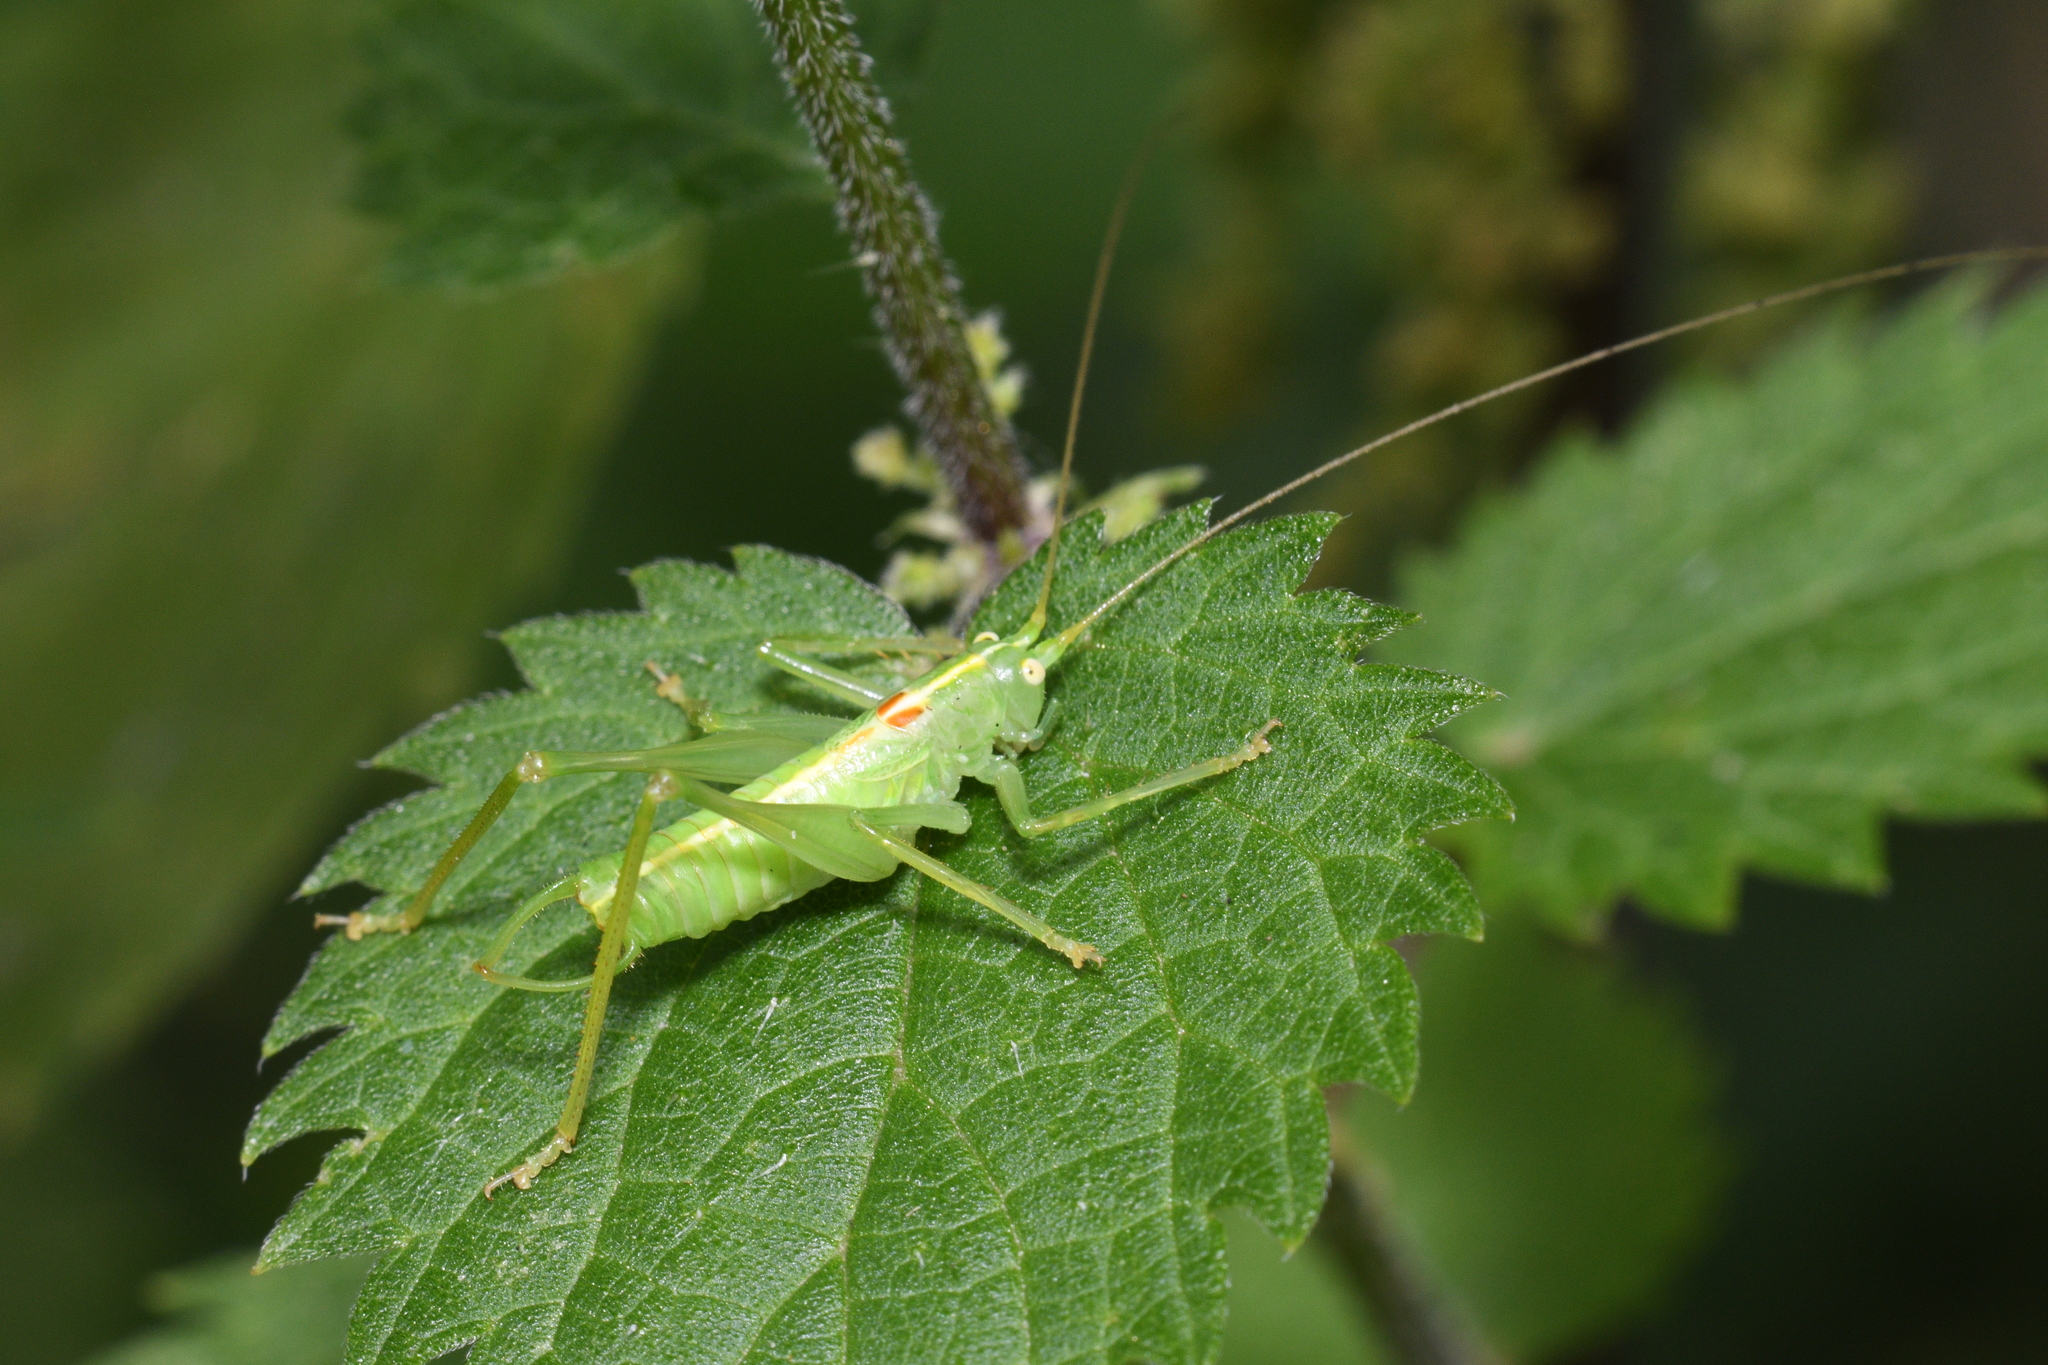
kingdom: Animalia
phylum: Arthropoda
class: Insecta
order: Orthoptera
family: Tettigoniidae
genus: Meconema
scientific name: Meconema meridionale
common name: Southern oak bush-cricket
